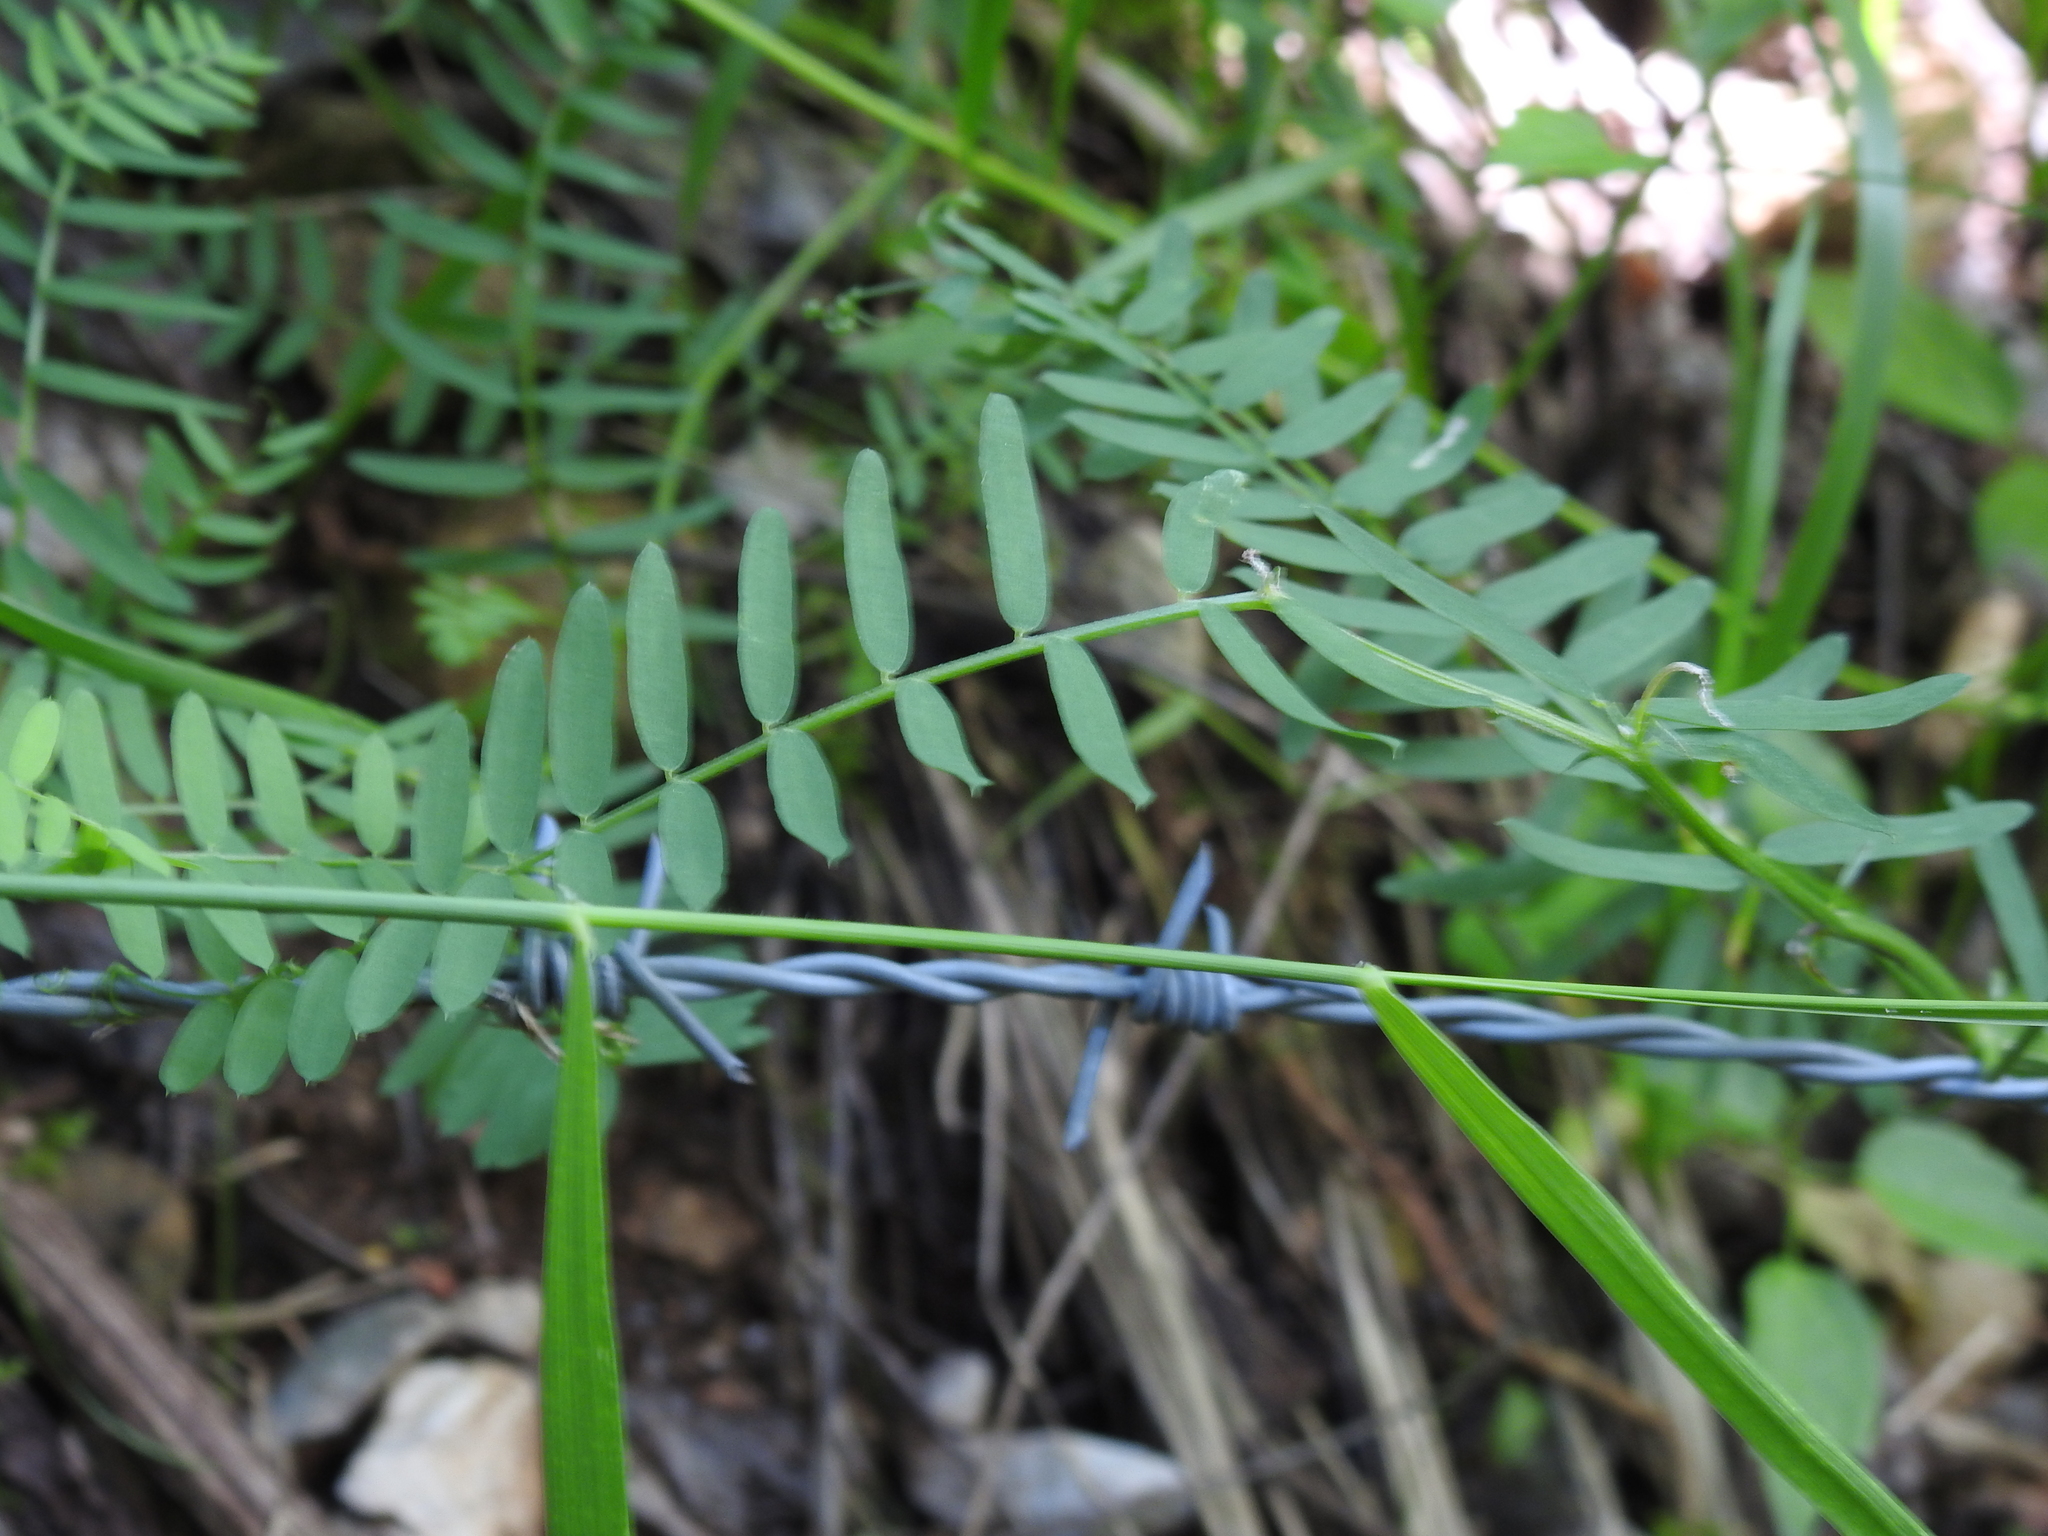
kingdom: Plantae
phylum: Tracheophyta
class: Magnoliopsida
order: Fabales
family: Fabaceae
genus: Vicia
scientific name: Vicia tenuifolia
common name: Fine-leaved vetch
